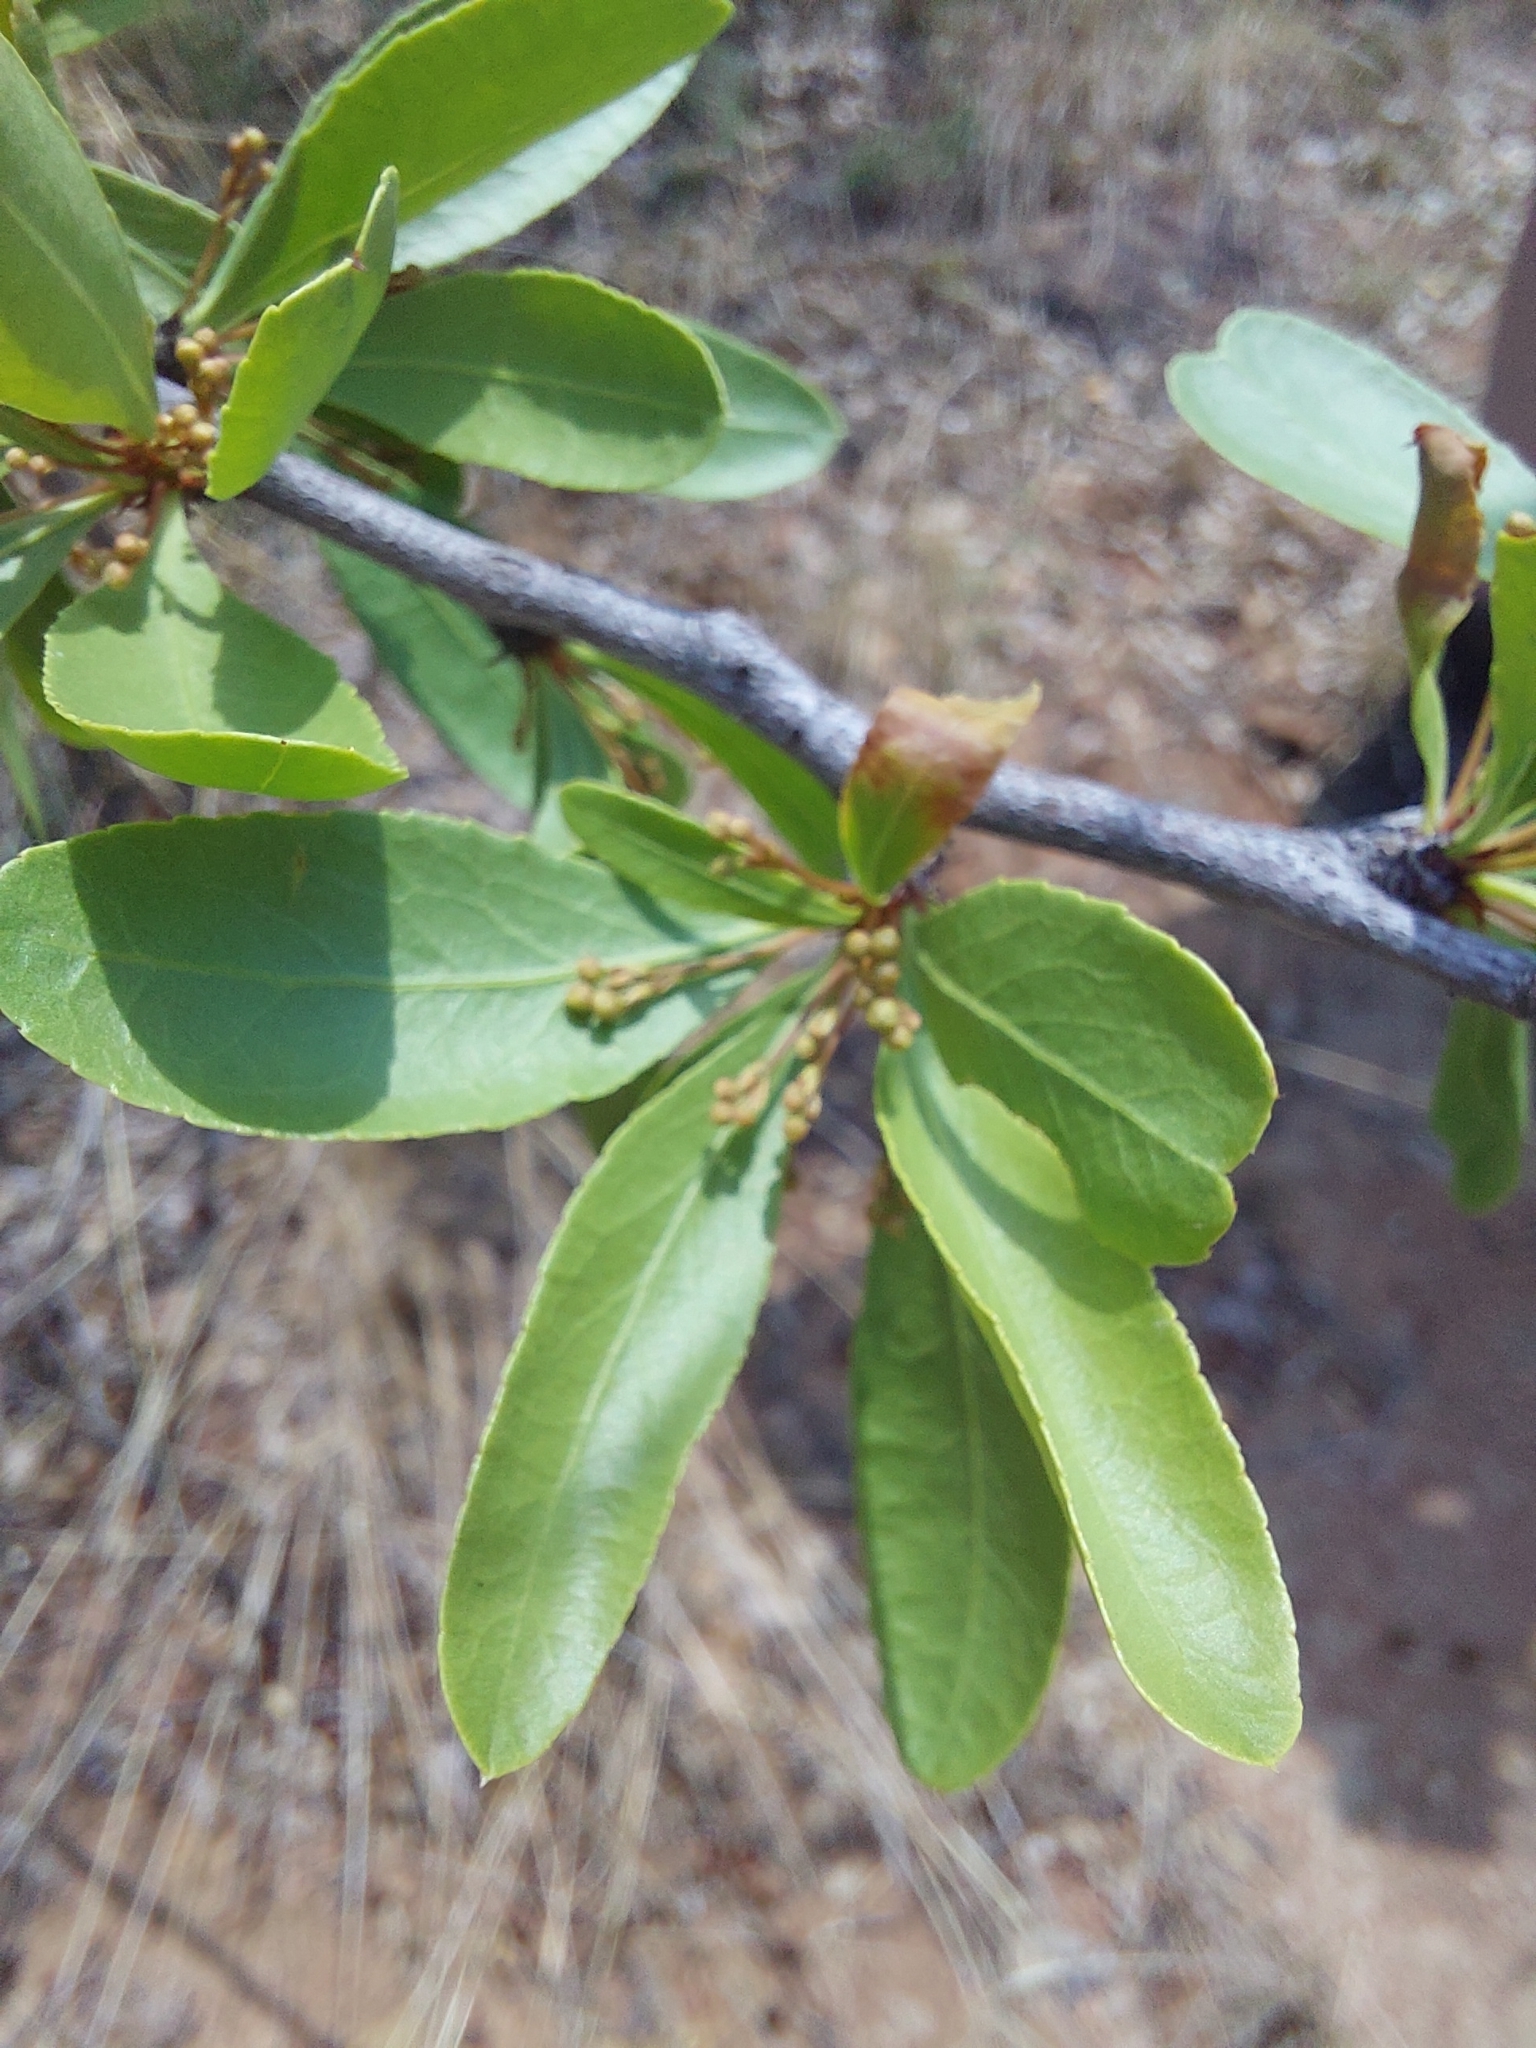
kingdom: Plantae
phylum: Tracheophyta
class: Magnoliopsida
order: Celastrales
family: Celastraceae
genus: Gymnosporia
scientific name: Gymnosporia tenuispina
